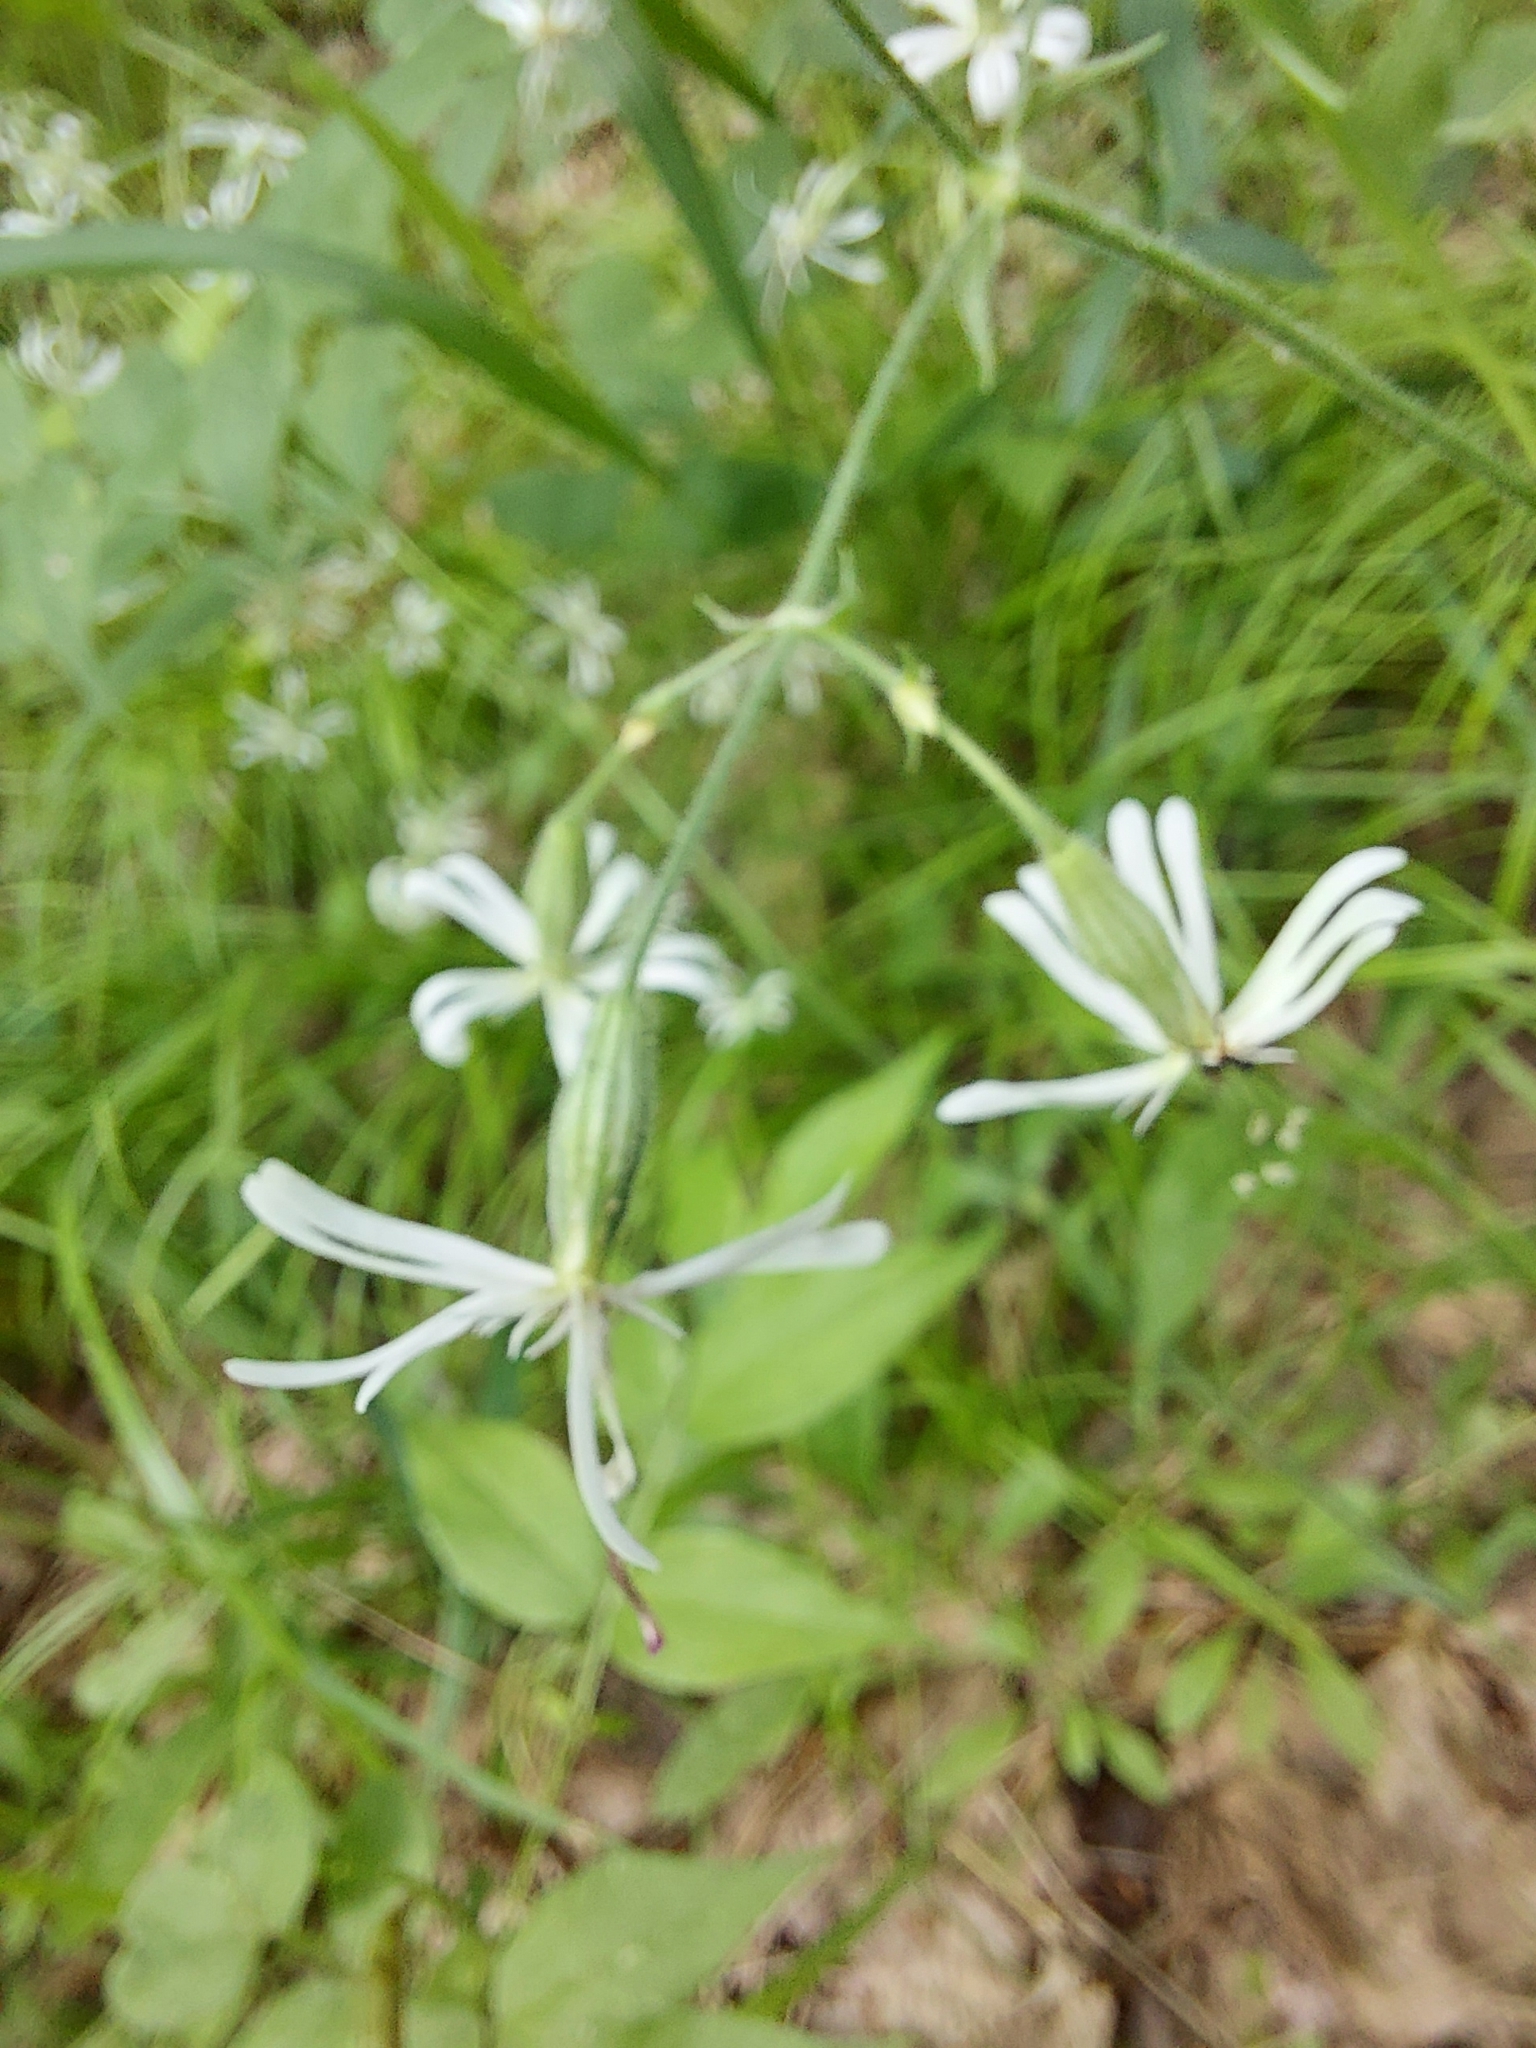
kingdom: Plantae
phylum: Tracheophyta
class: Magnoliopsida
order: Caryophyllales
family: Caryophyllaceae
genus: Silene
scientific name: Silene nutans
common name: Nottingham catchfly
